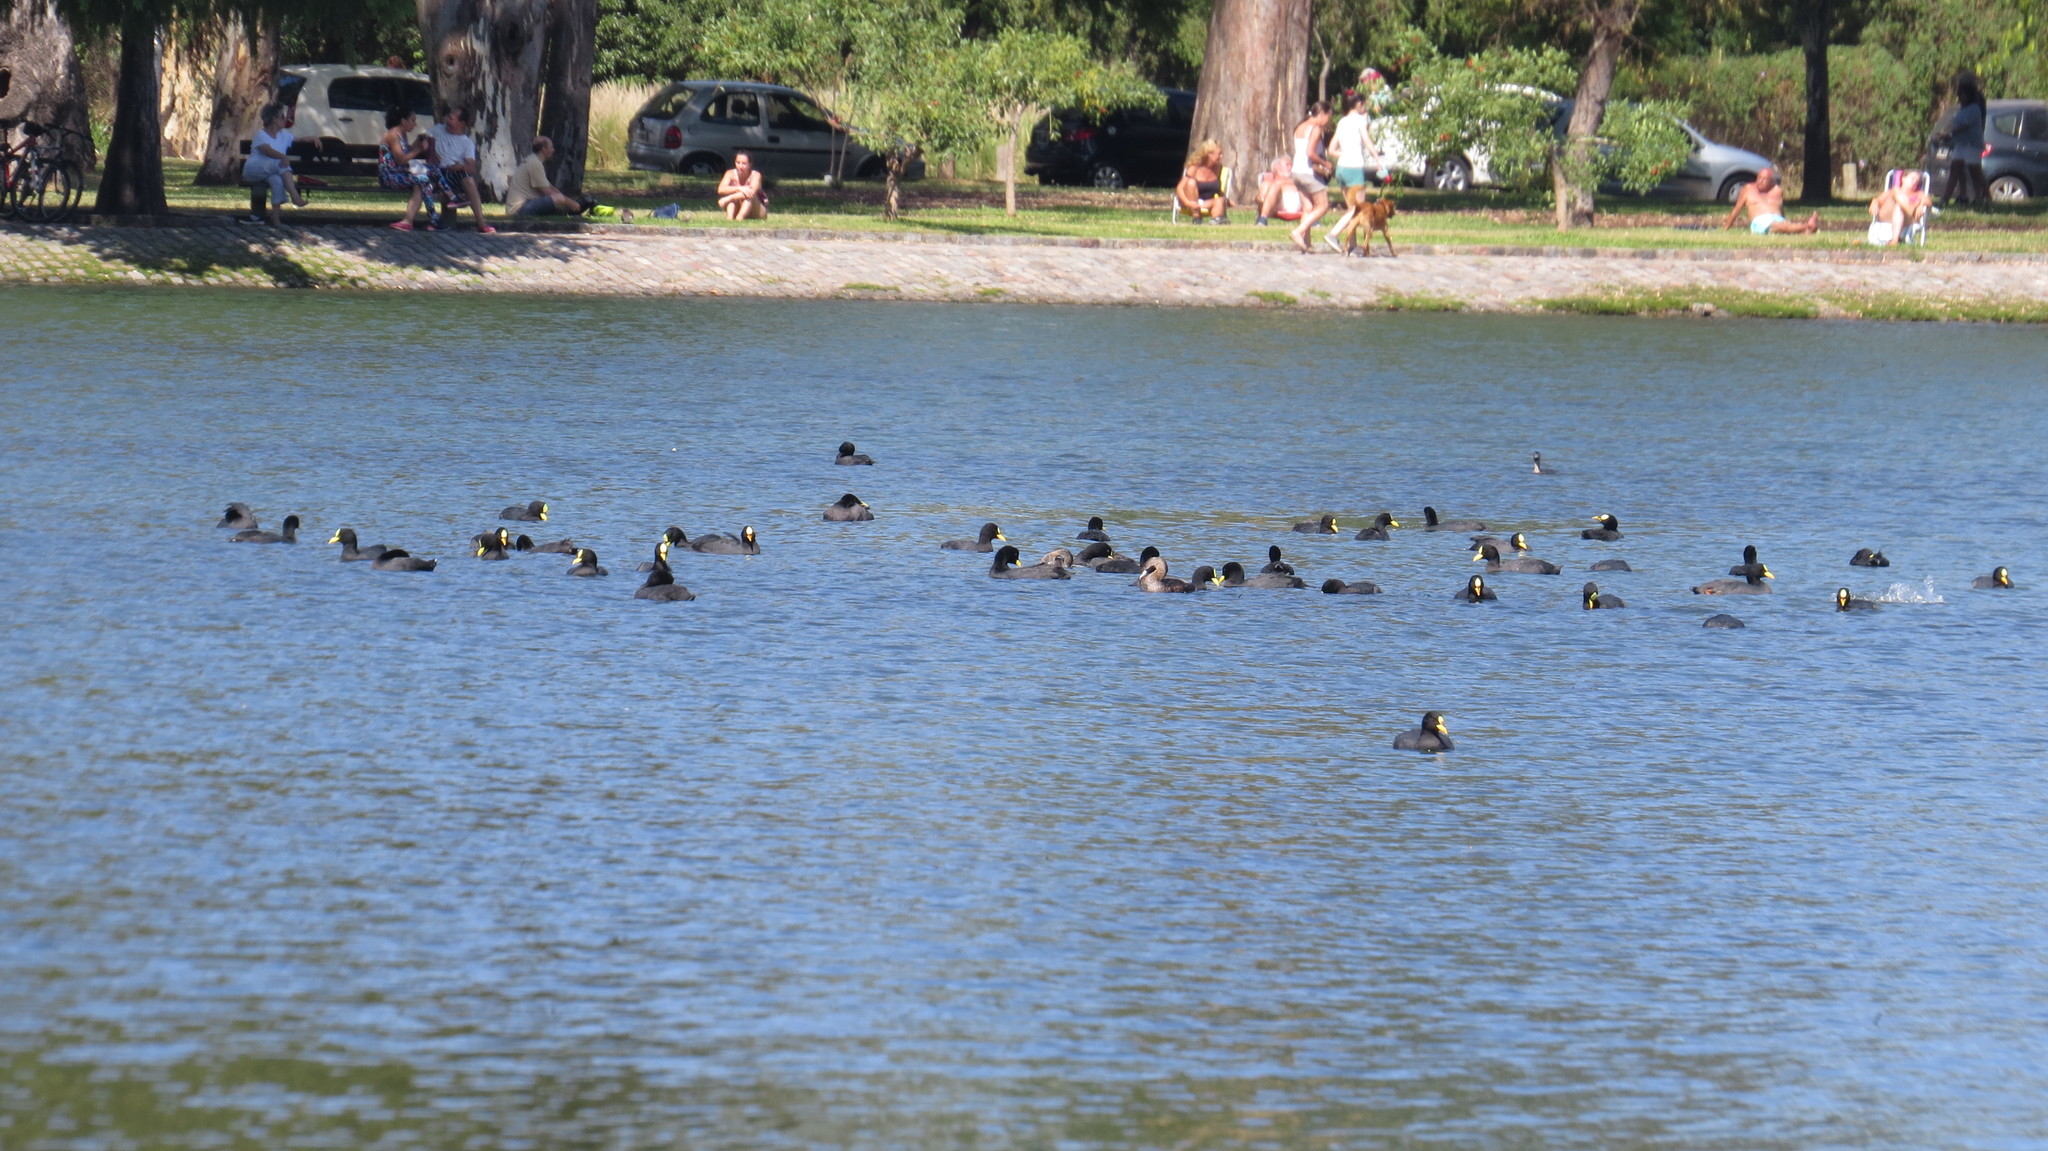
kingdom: Animalia
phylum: Chordata
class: Aves
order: Gruiformes
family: Rallidae
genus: Fulica
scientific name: Fulica armillata
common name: Red-gartered coot
